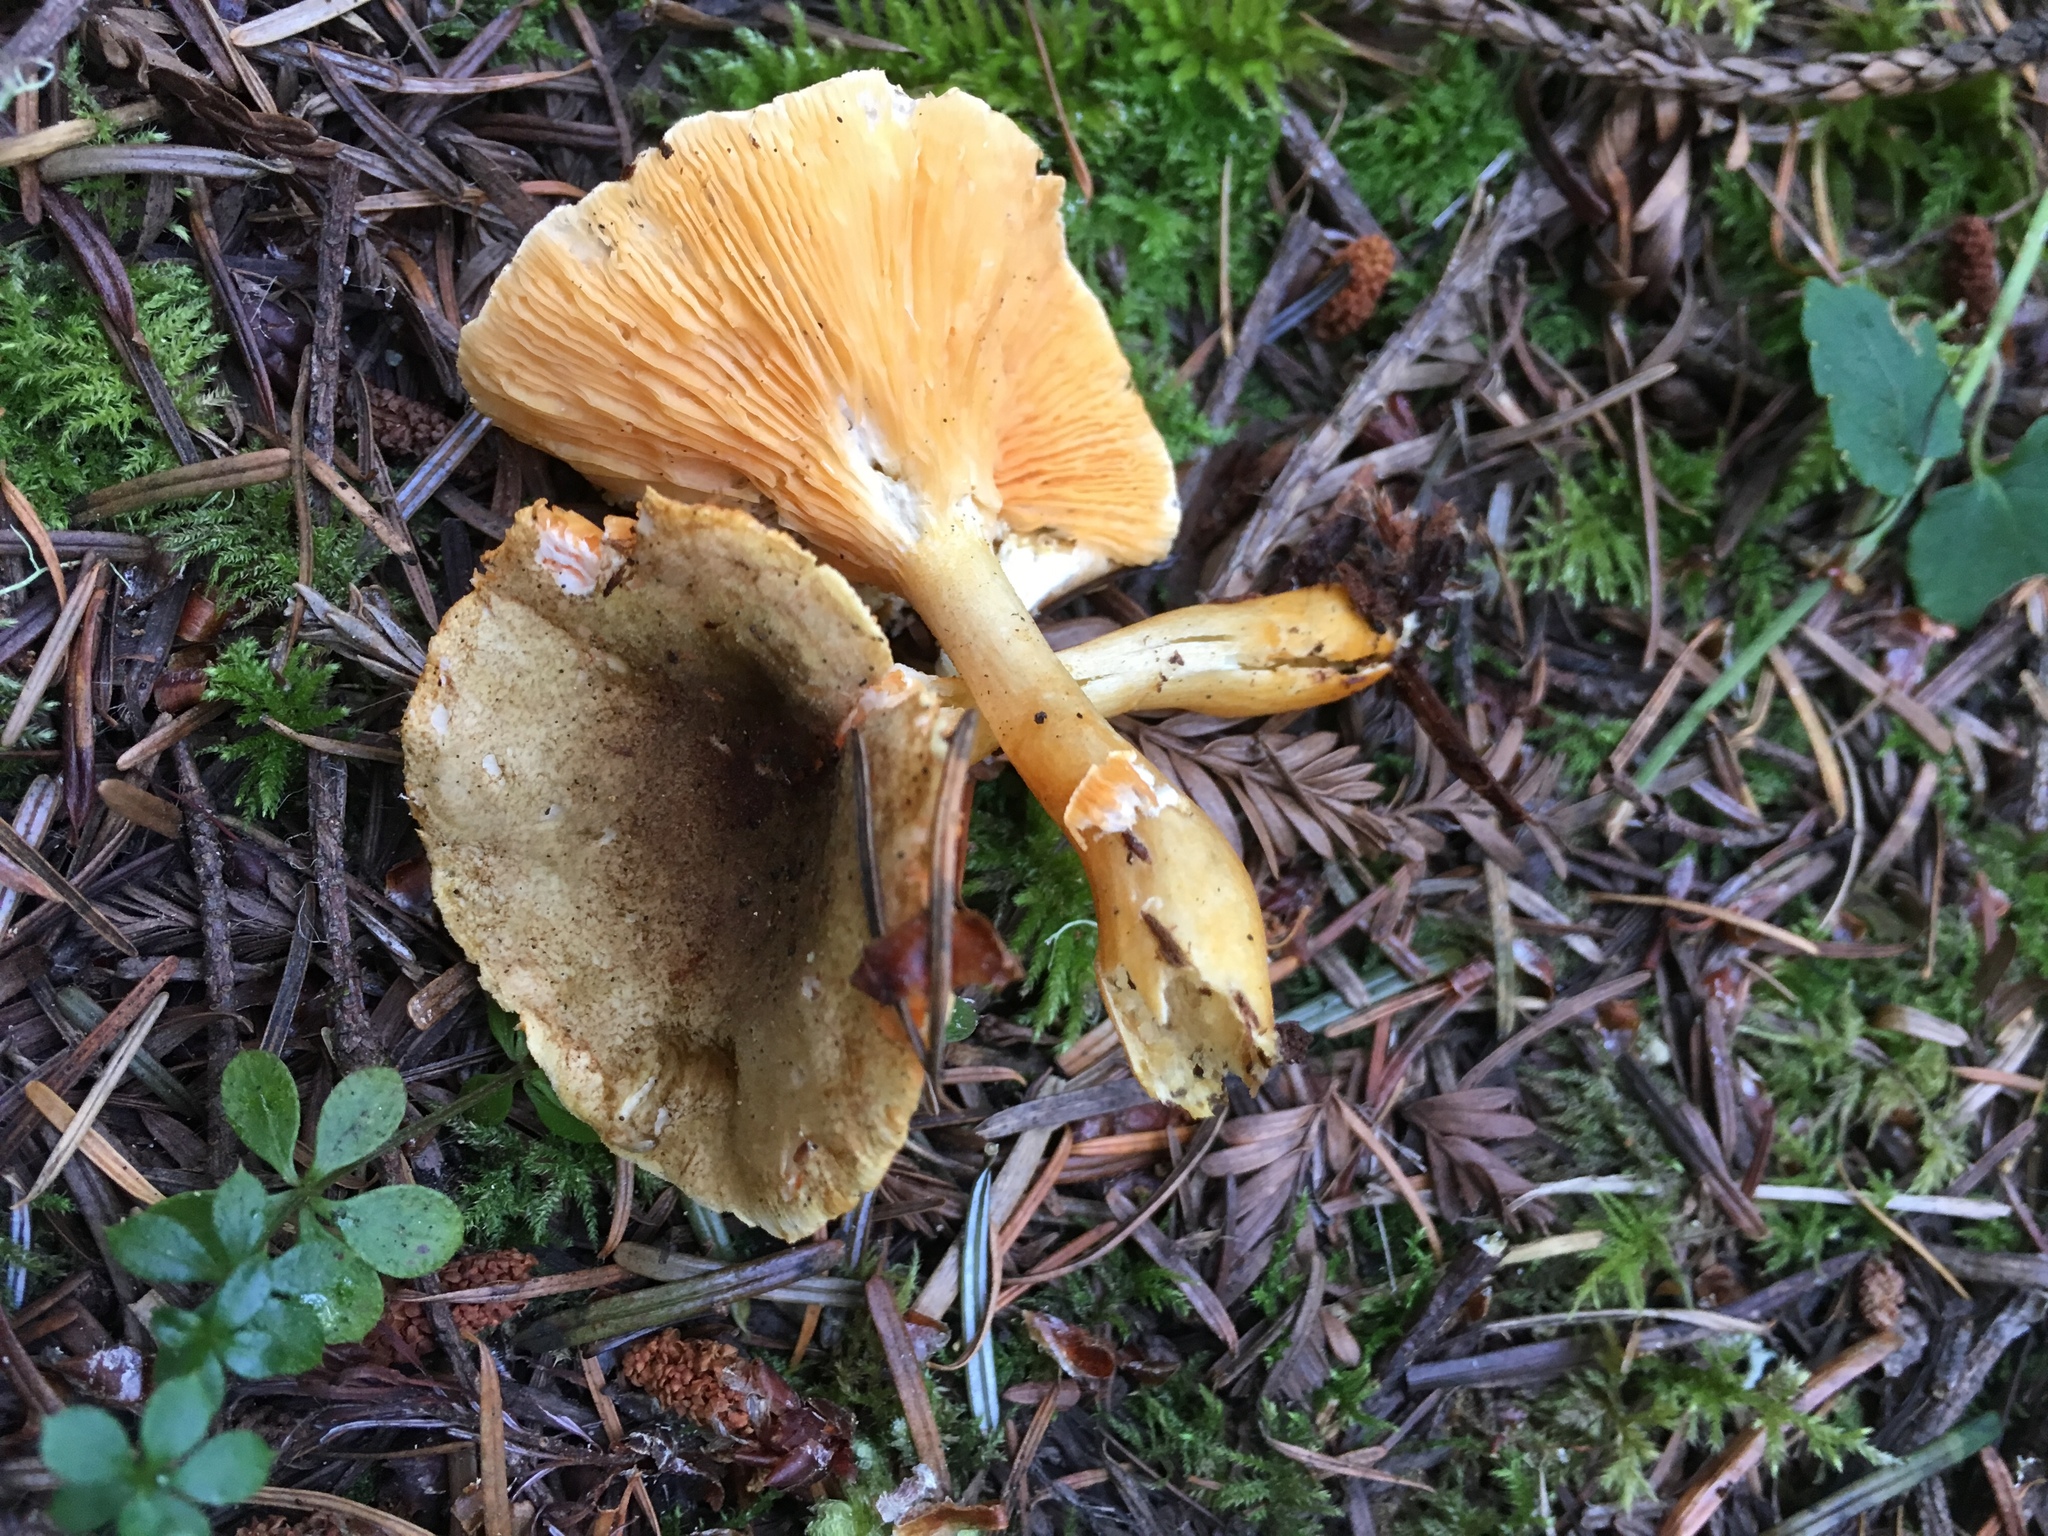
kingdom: Fungi
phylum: Basidiomycota
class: Agaricomycetes
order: Boletales
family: Hygrophoropsidaceae
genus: Hygrophoropsis
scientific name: Hygrophoropsis aurantiaca
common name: False chanterelle
